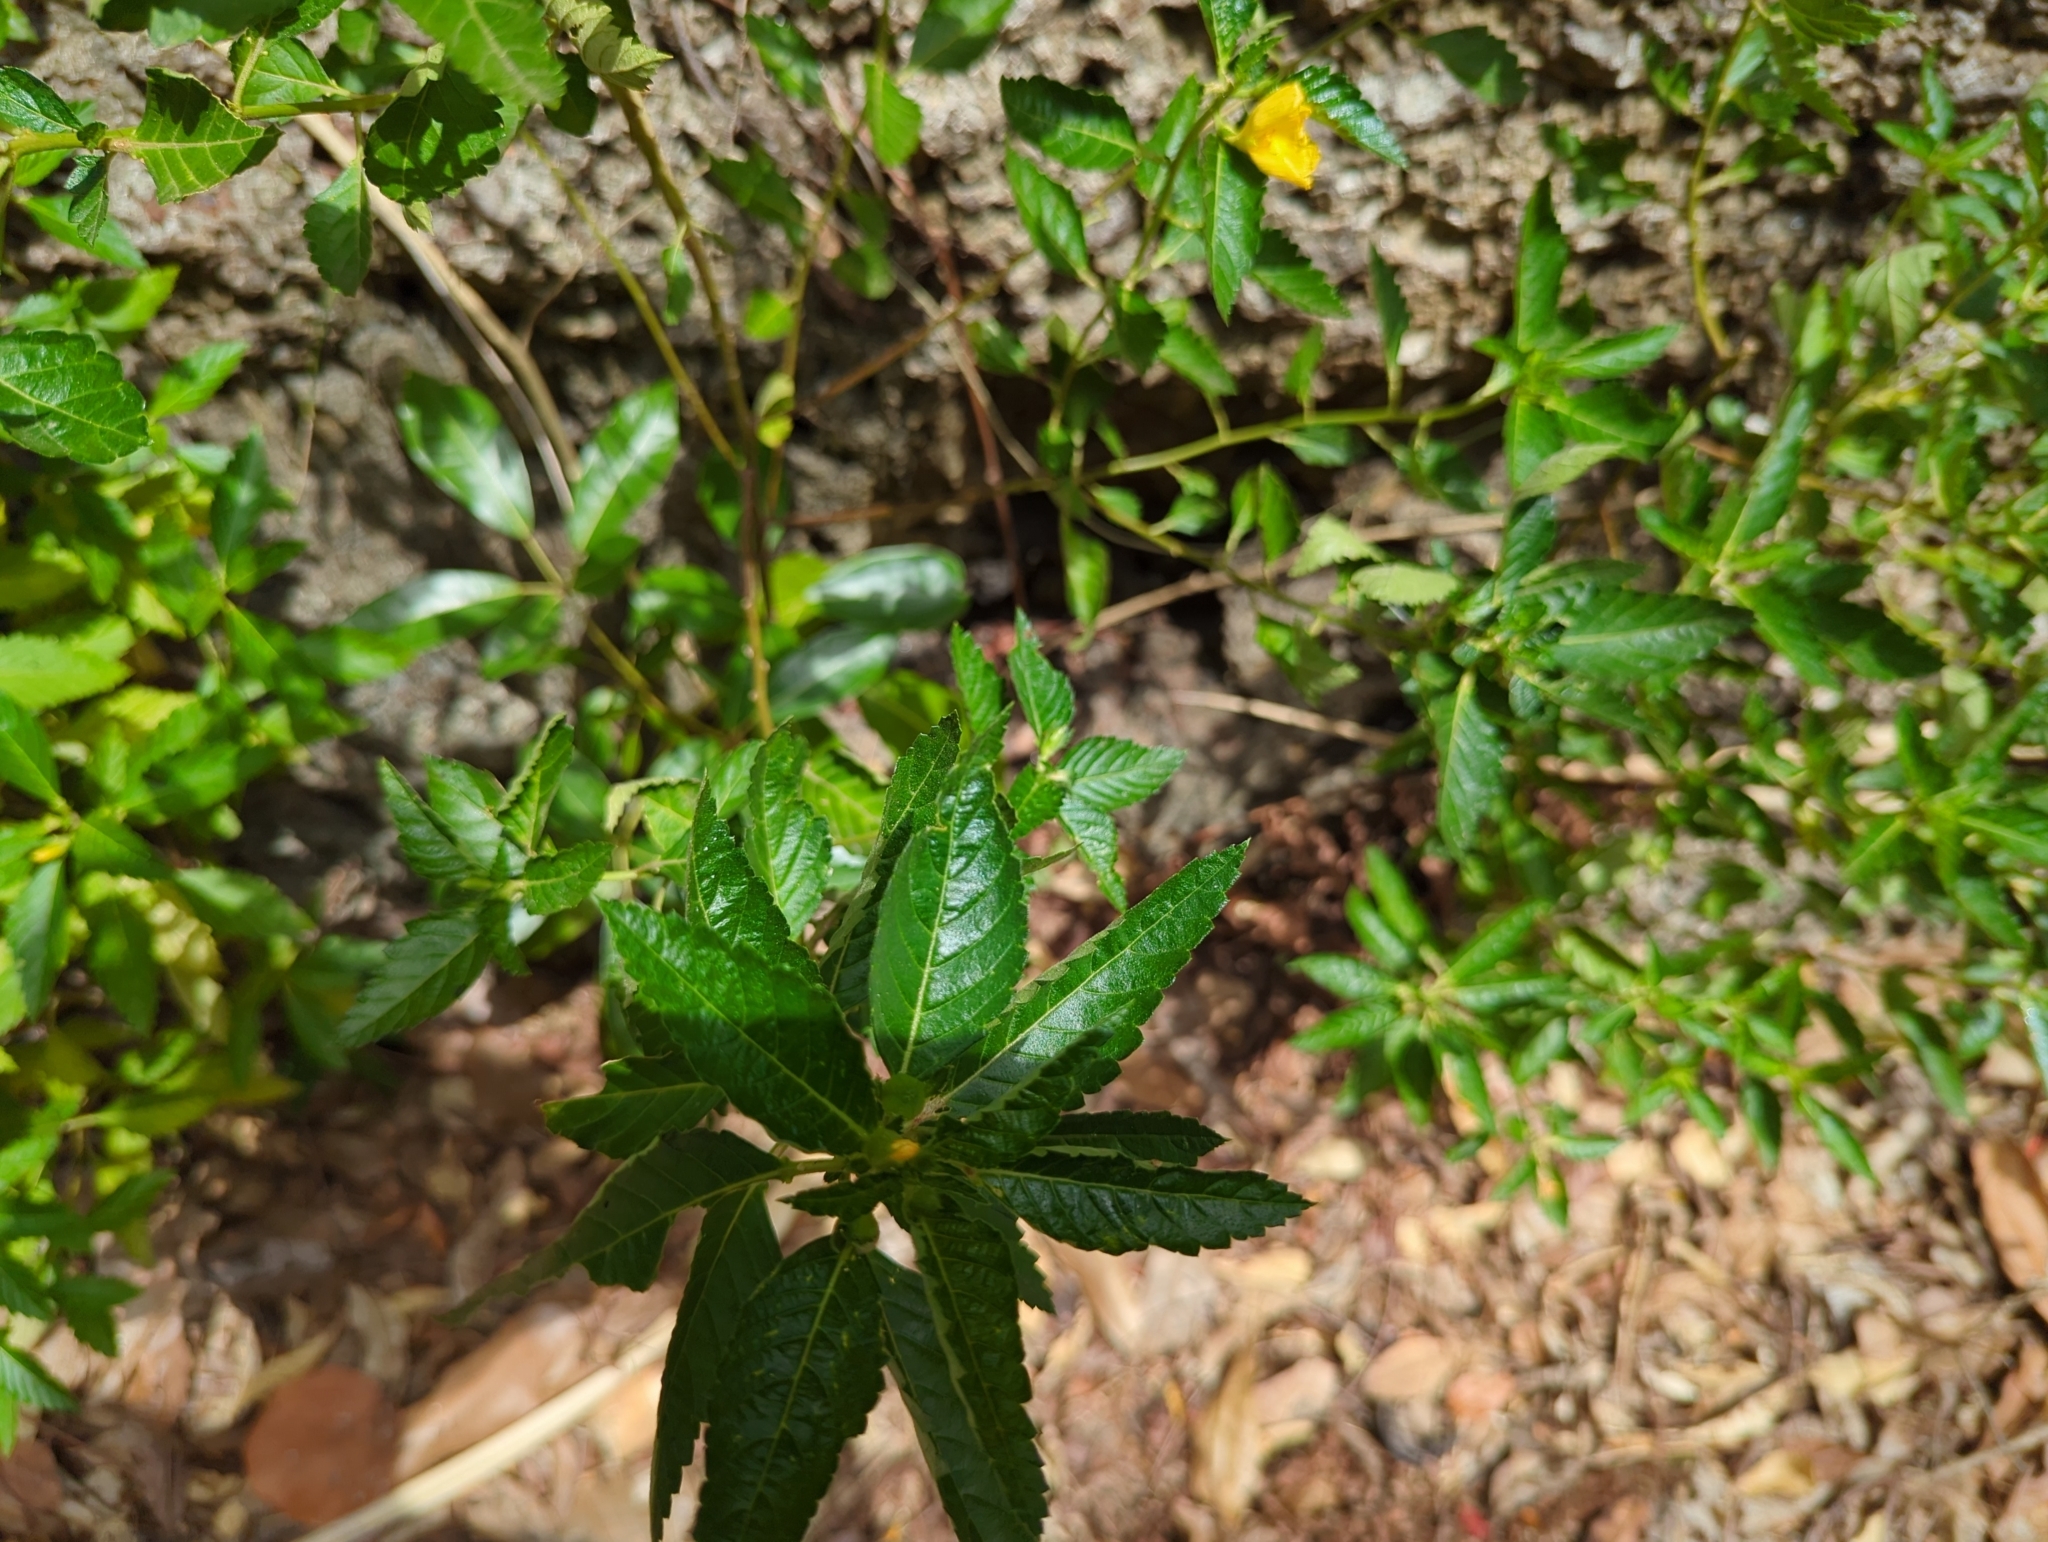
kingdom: Plantae
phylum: Tracheophyta
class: Magnoliopsida
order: Malpighiales
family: Turneraceae
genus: Turnera
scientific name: Turnera ulmifolia
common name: Ramgoat dashalong
